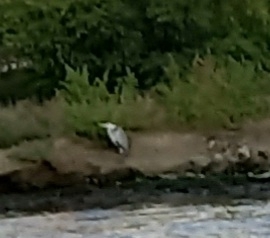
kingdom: Animalia
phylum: Chordata
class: Aves
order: Pelecaniformes
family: Ardeidae
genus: Ardea
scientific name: Ardea cinerea
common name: Grey heron
